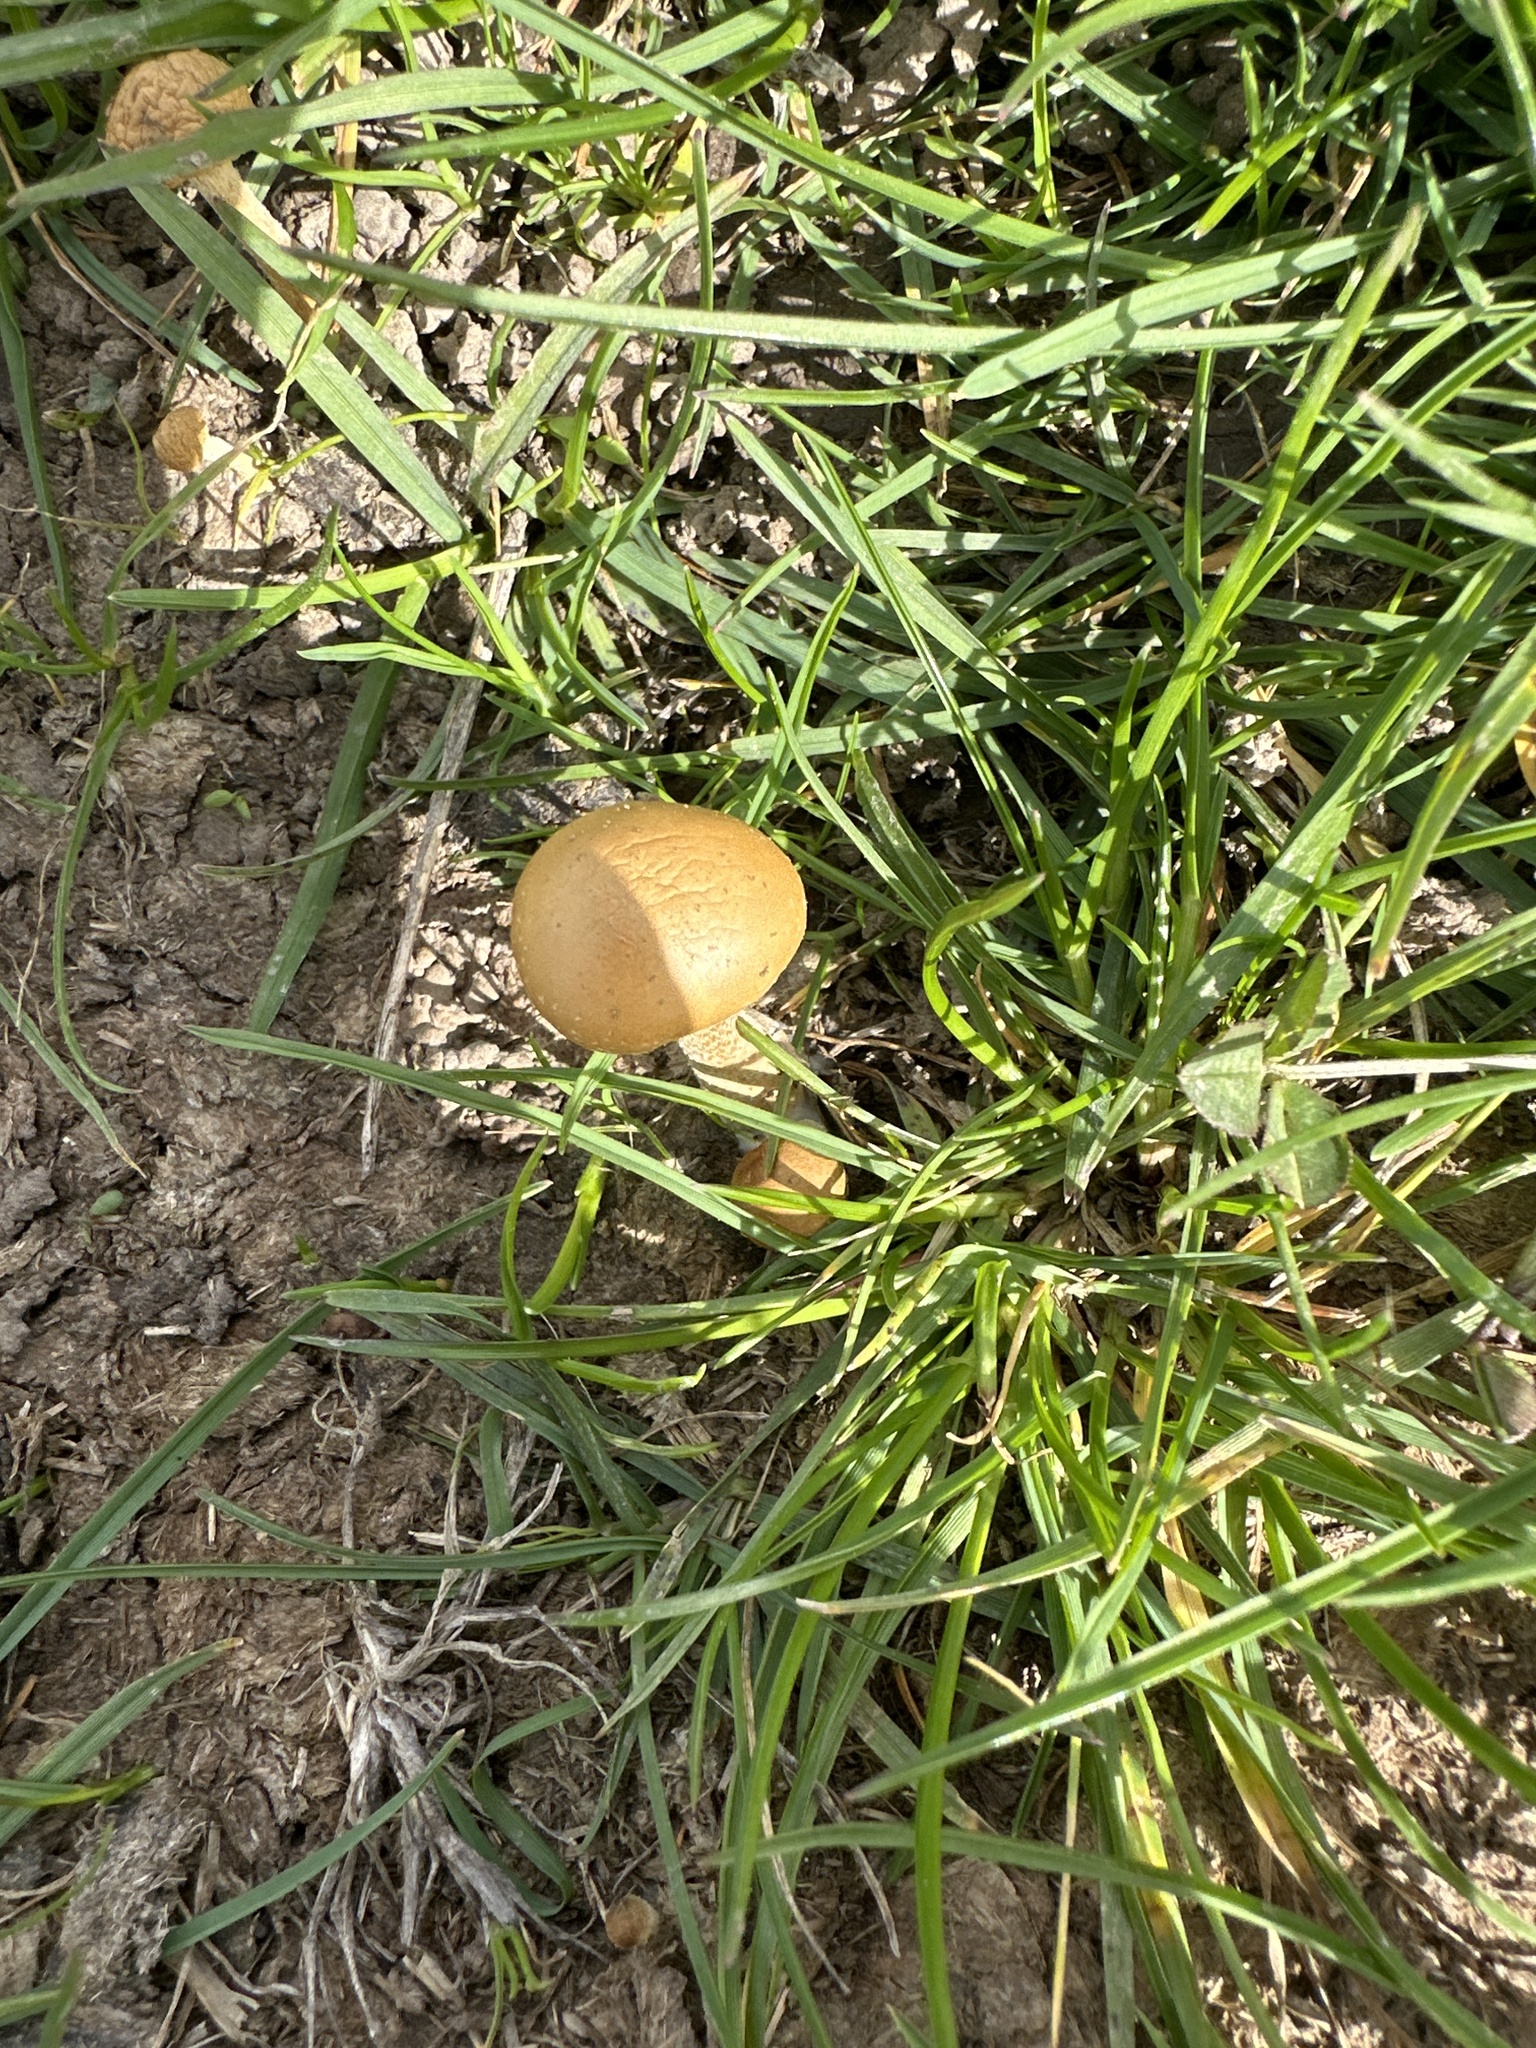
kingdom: Fungi
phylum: Basidiomycota
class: Agaricomycetes
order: Agaricales
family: Strophariaceae
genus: Agrocybe
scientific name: Agrocybe pediades
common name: Common fieldcap
